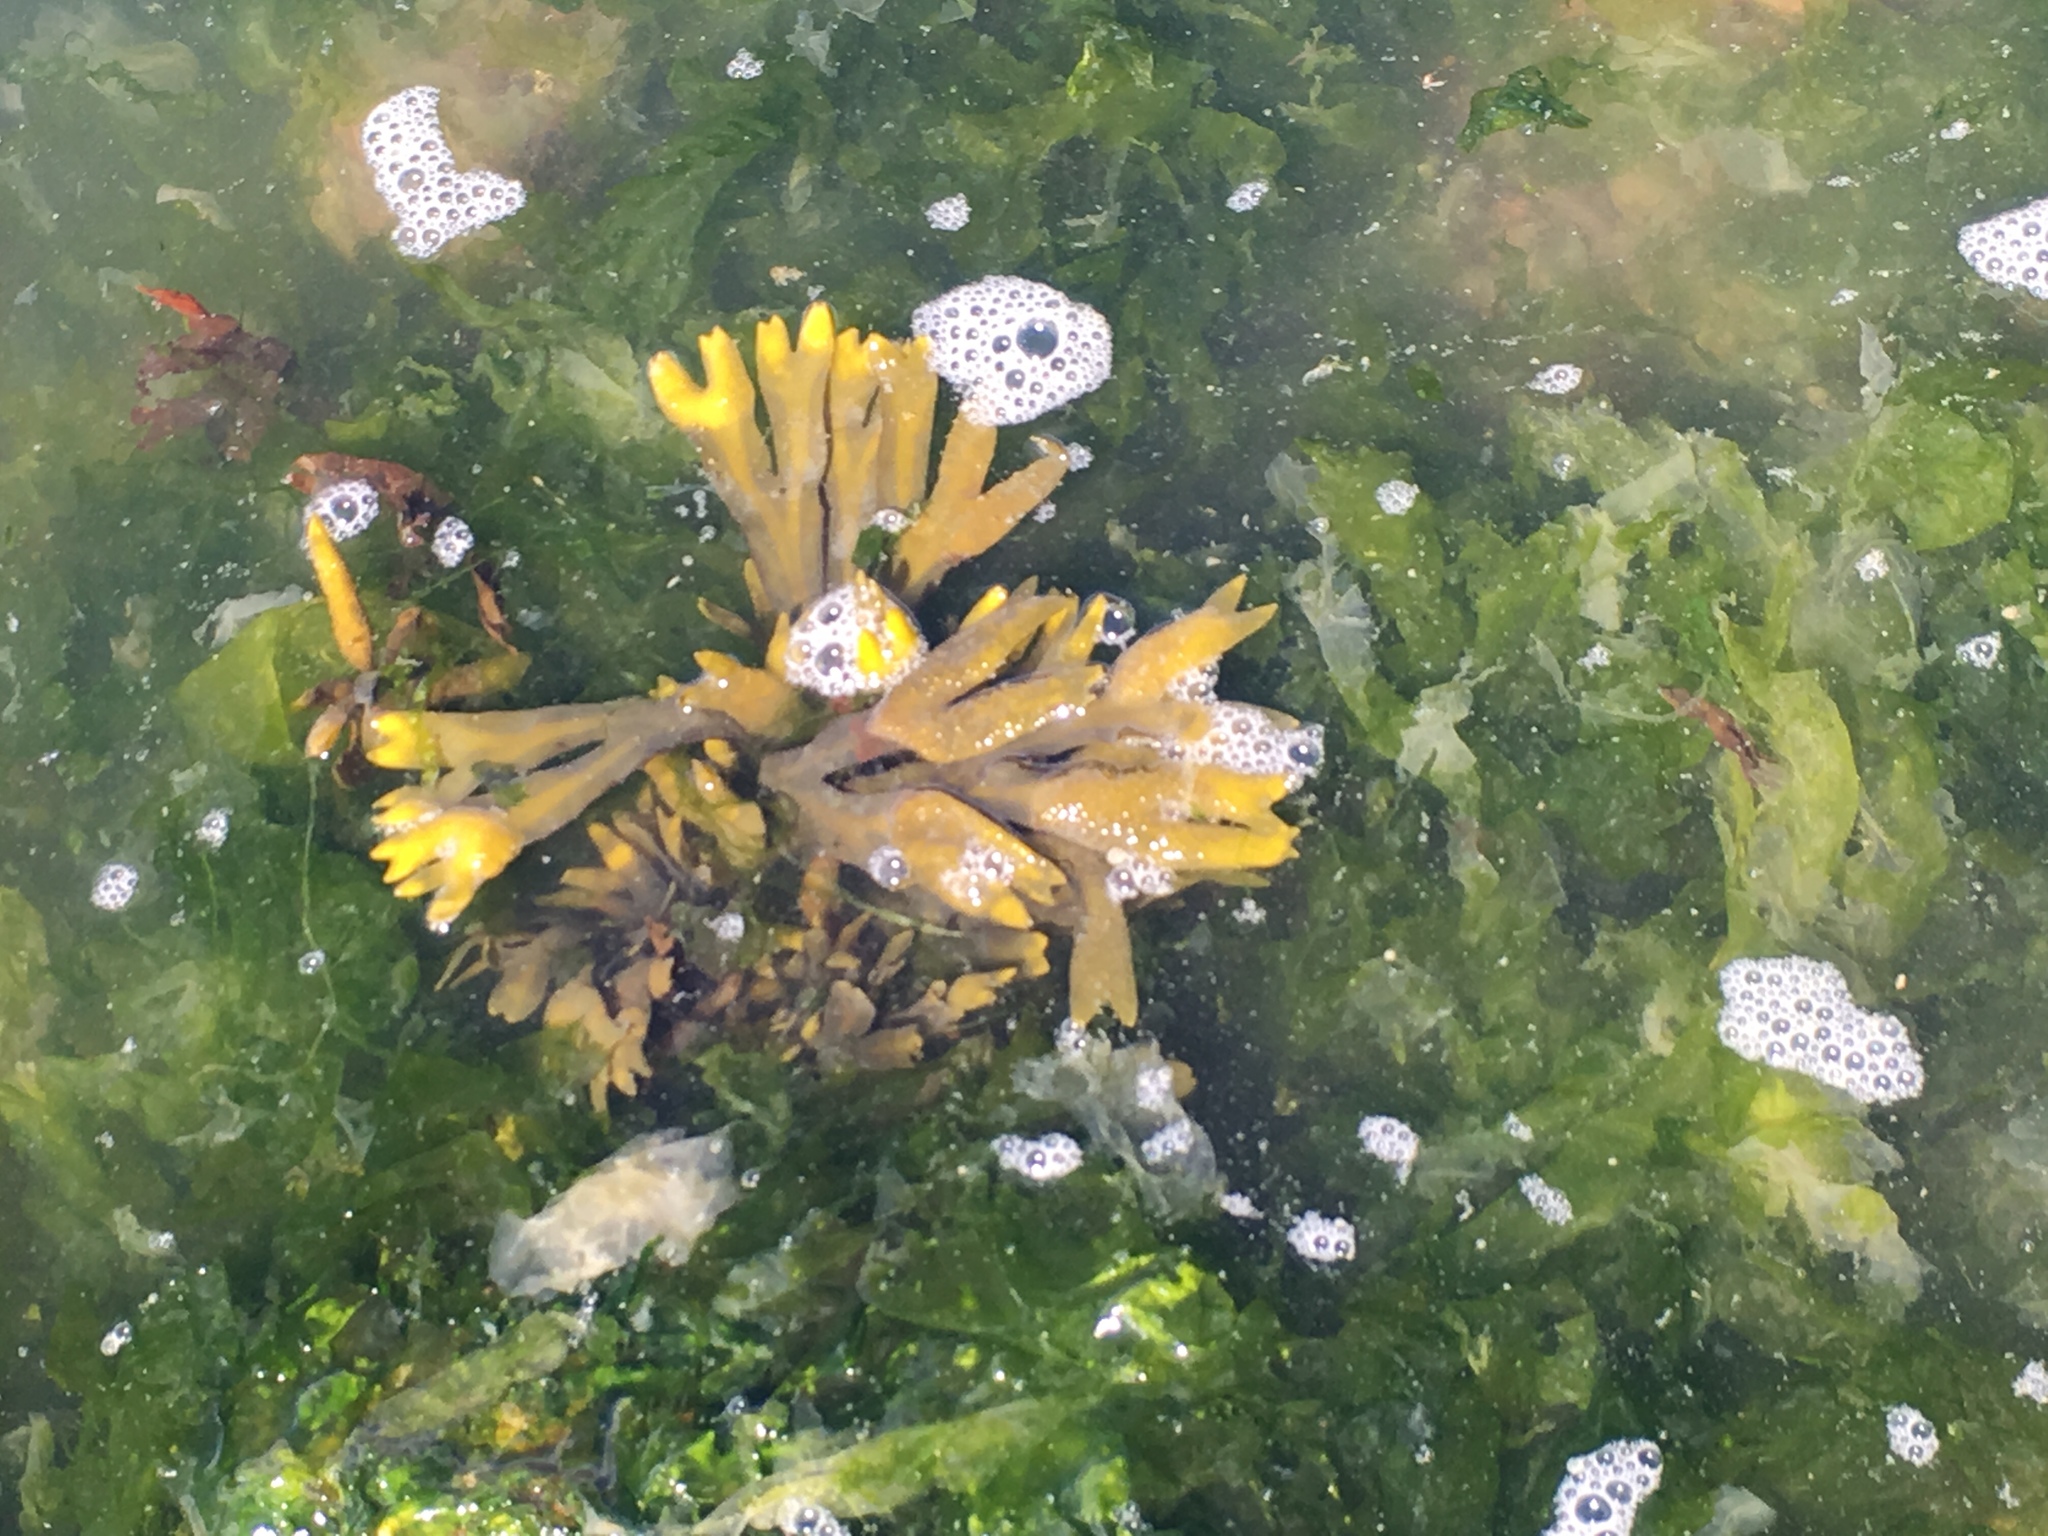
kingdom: Chromista
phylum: Ochrophyta
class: Phaeophyceae
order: Fucales
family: Fucaceae
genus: Fucus
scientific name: Fucus distichus
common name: Rockweed
